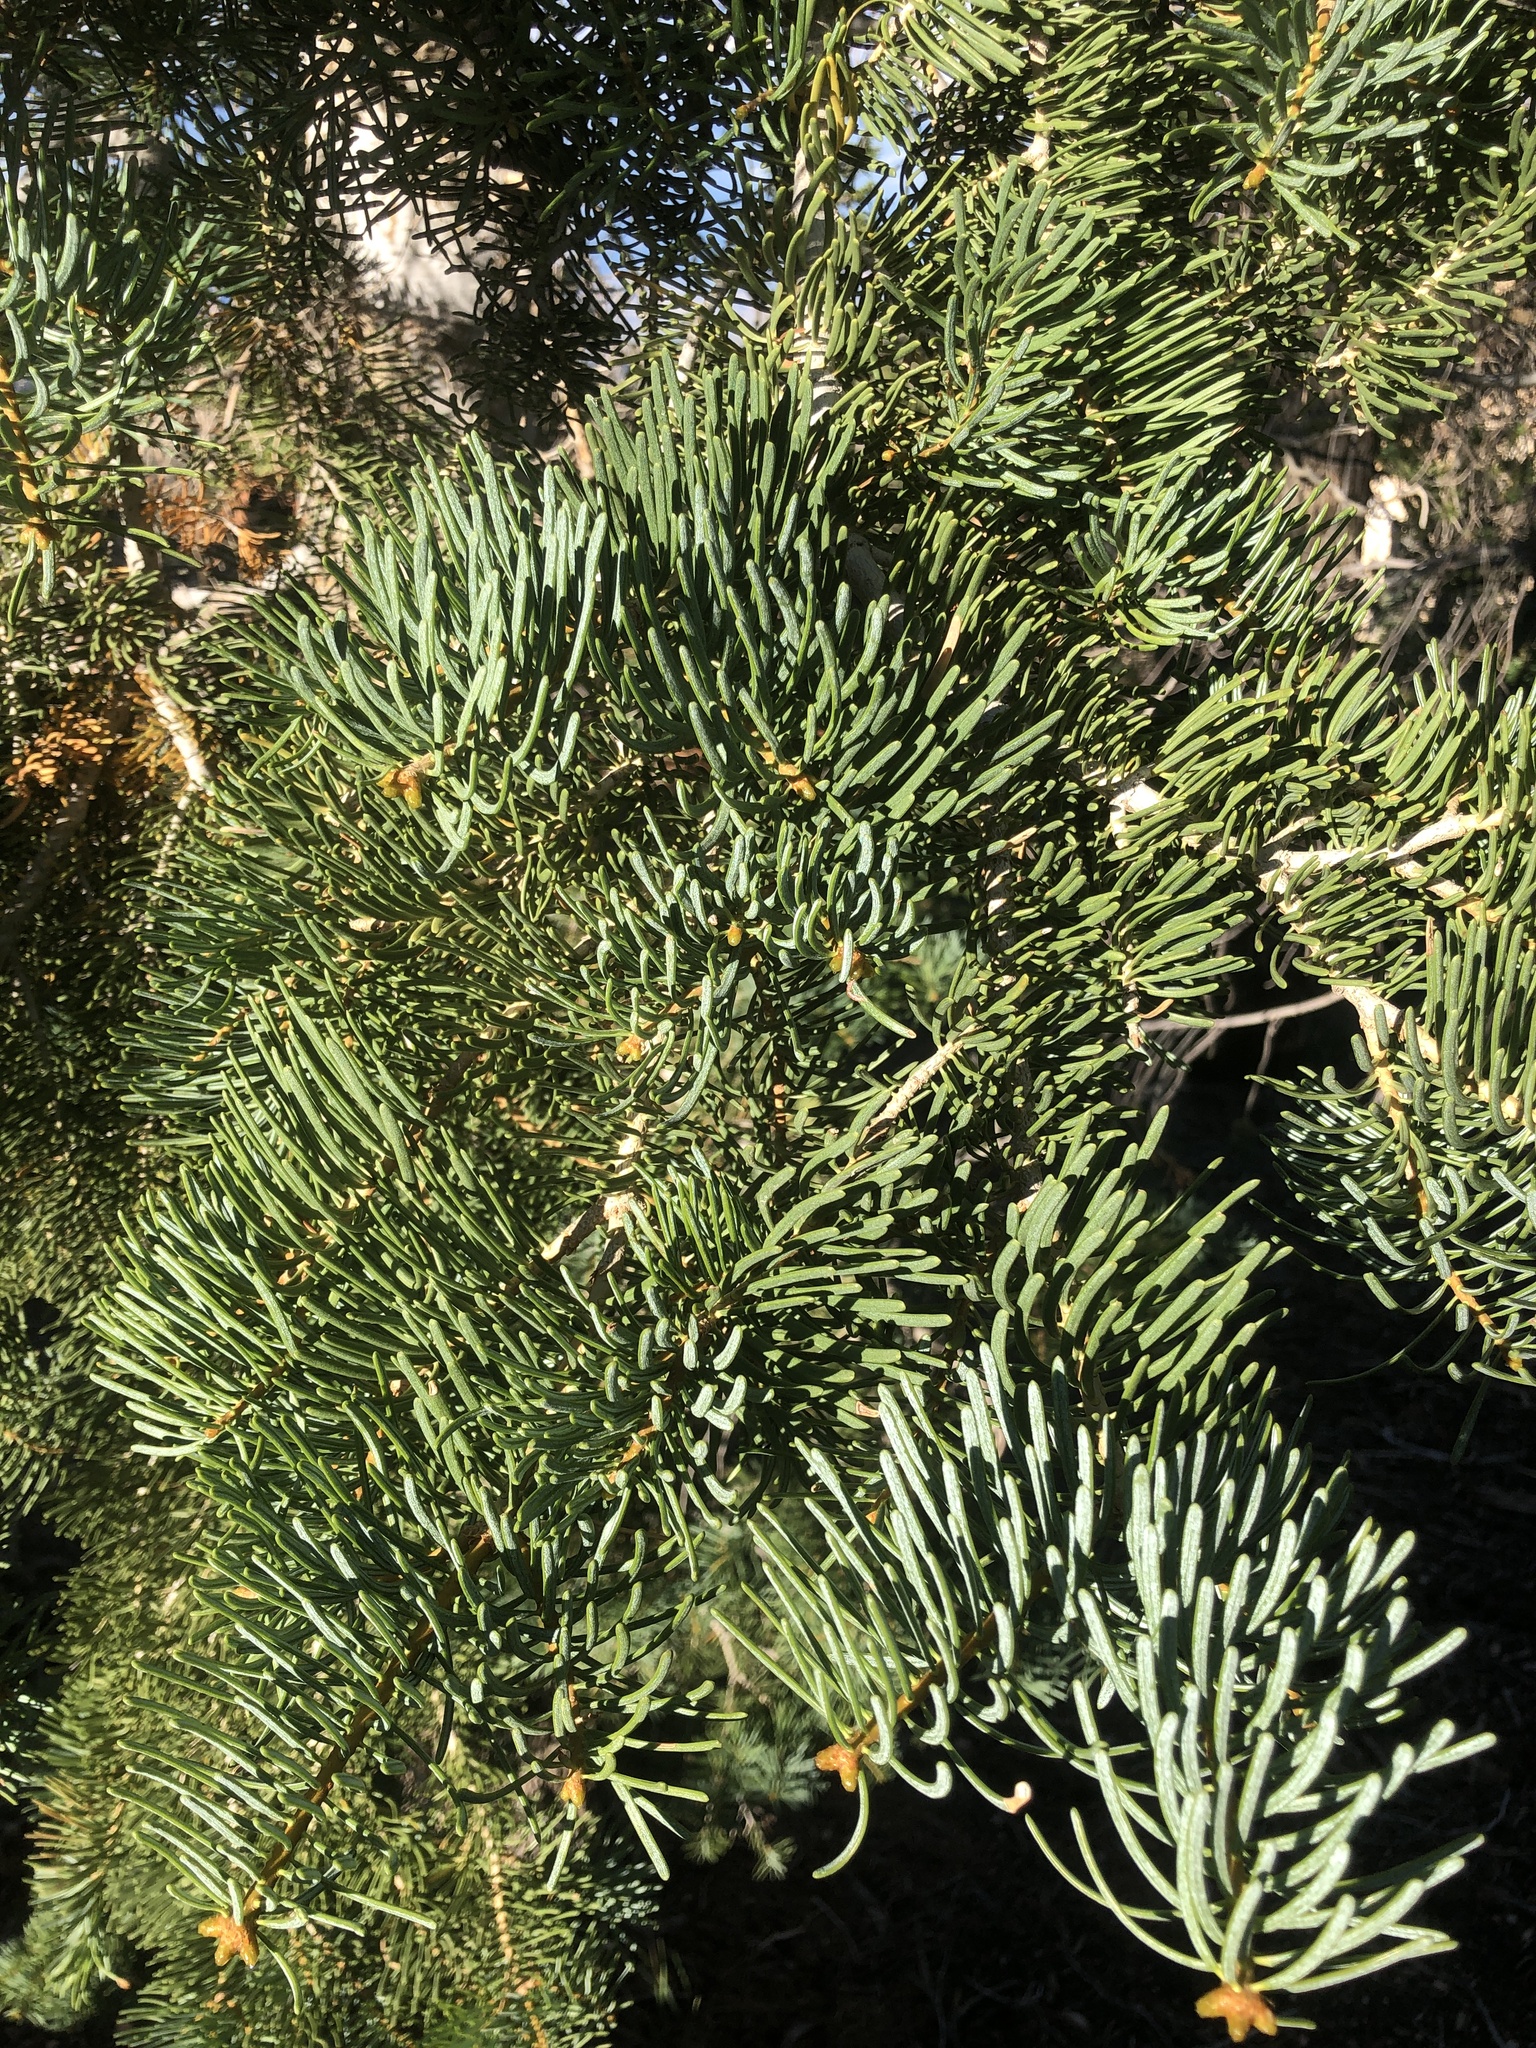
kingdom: Plantae
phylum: Tracheophyta
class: Pinopsida
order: Pinales
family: Pinaceae
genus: Abies
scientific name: Abies concolor
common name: Colorado fir
